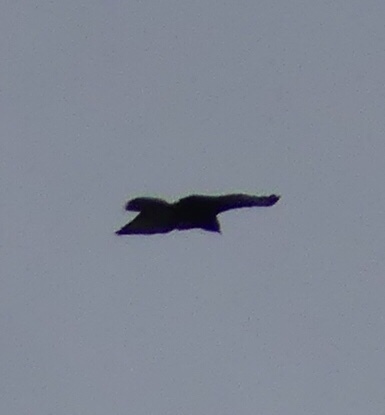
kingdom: Animalia
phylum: Chordata
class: Aves
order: Accipitriformes
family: Accipitridae
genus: Pernis
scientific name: Pernis apivorus
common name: European honey buzzard
